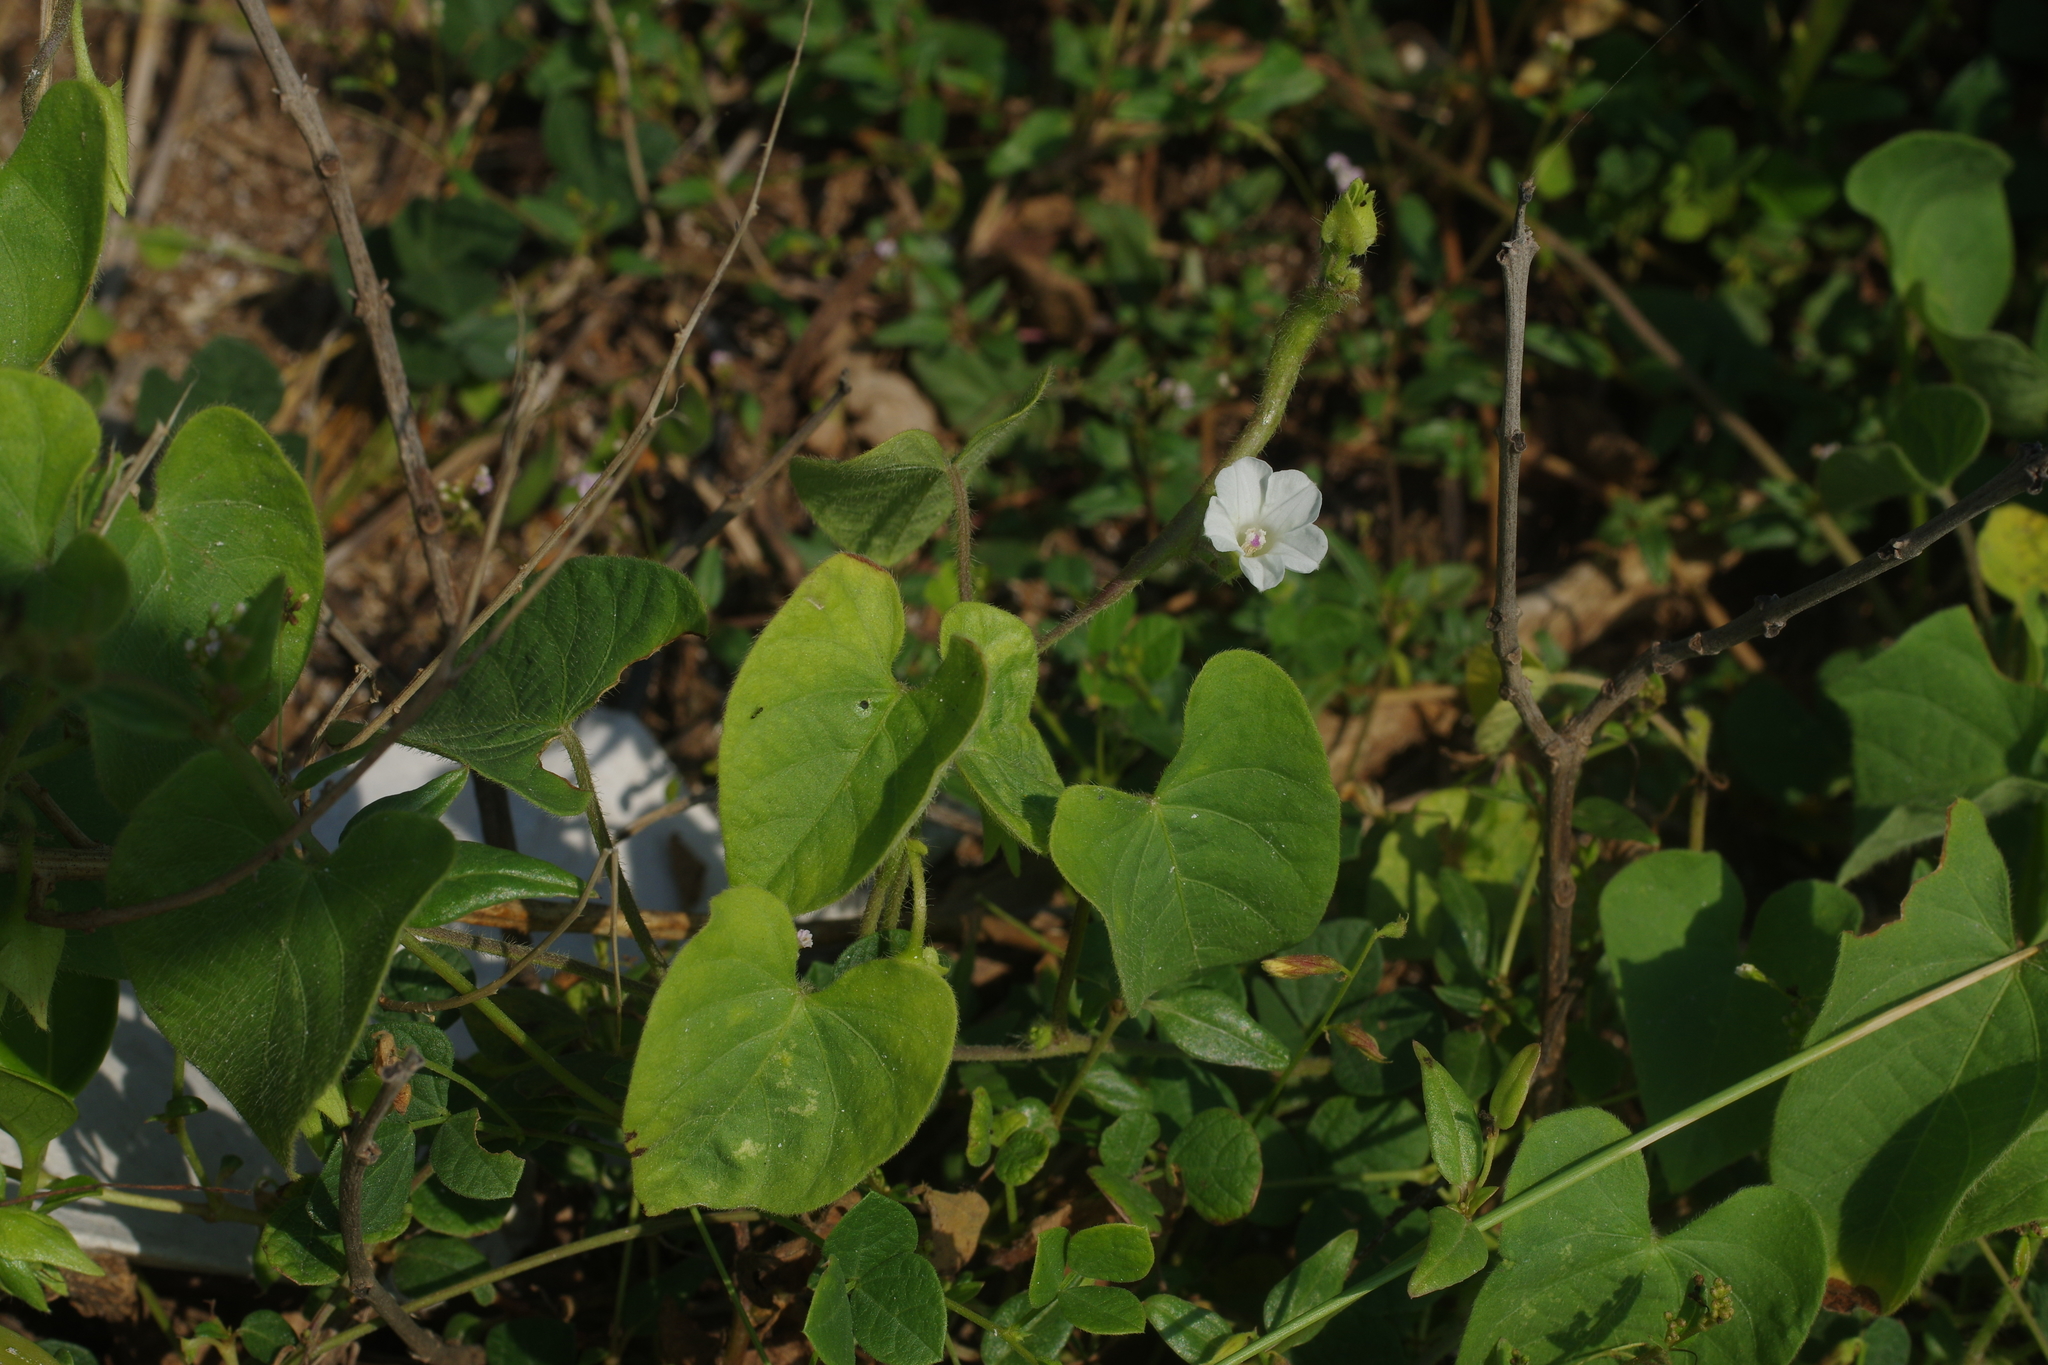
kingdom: Plantae
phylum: Tracheophyta
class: Magnoliopsida
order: Solanales
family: Convolvulaceae
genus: Ipomoea
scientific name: Ipomoea biflora
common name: Bellvine
